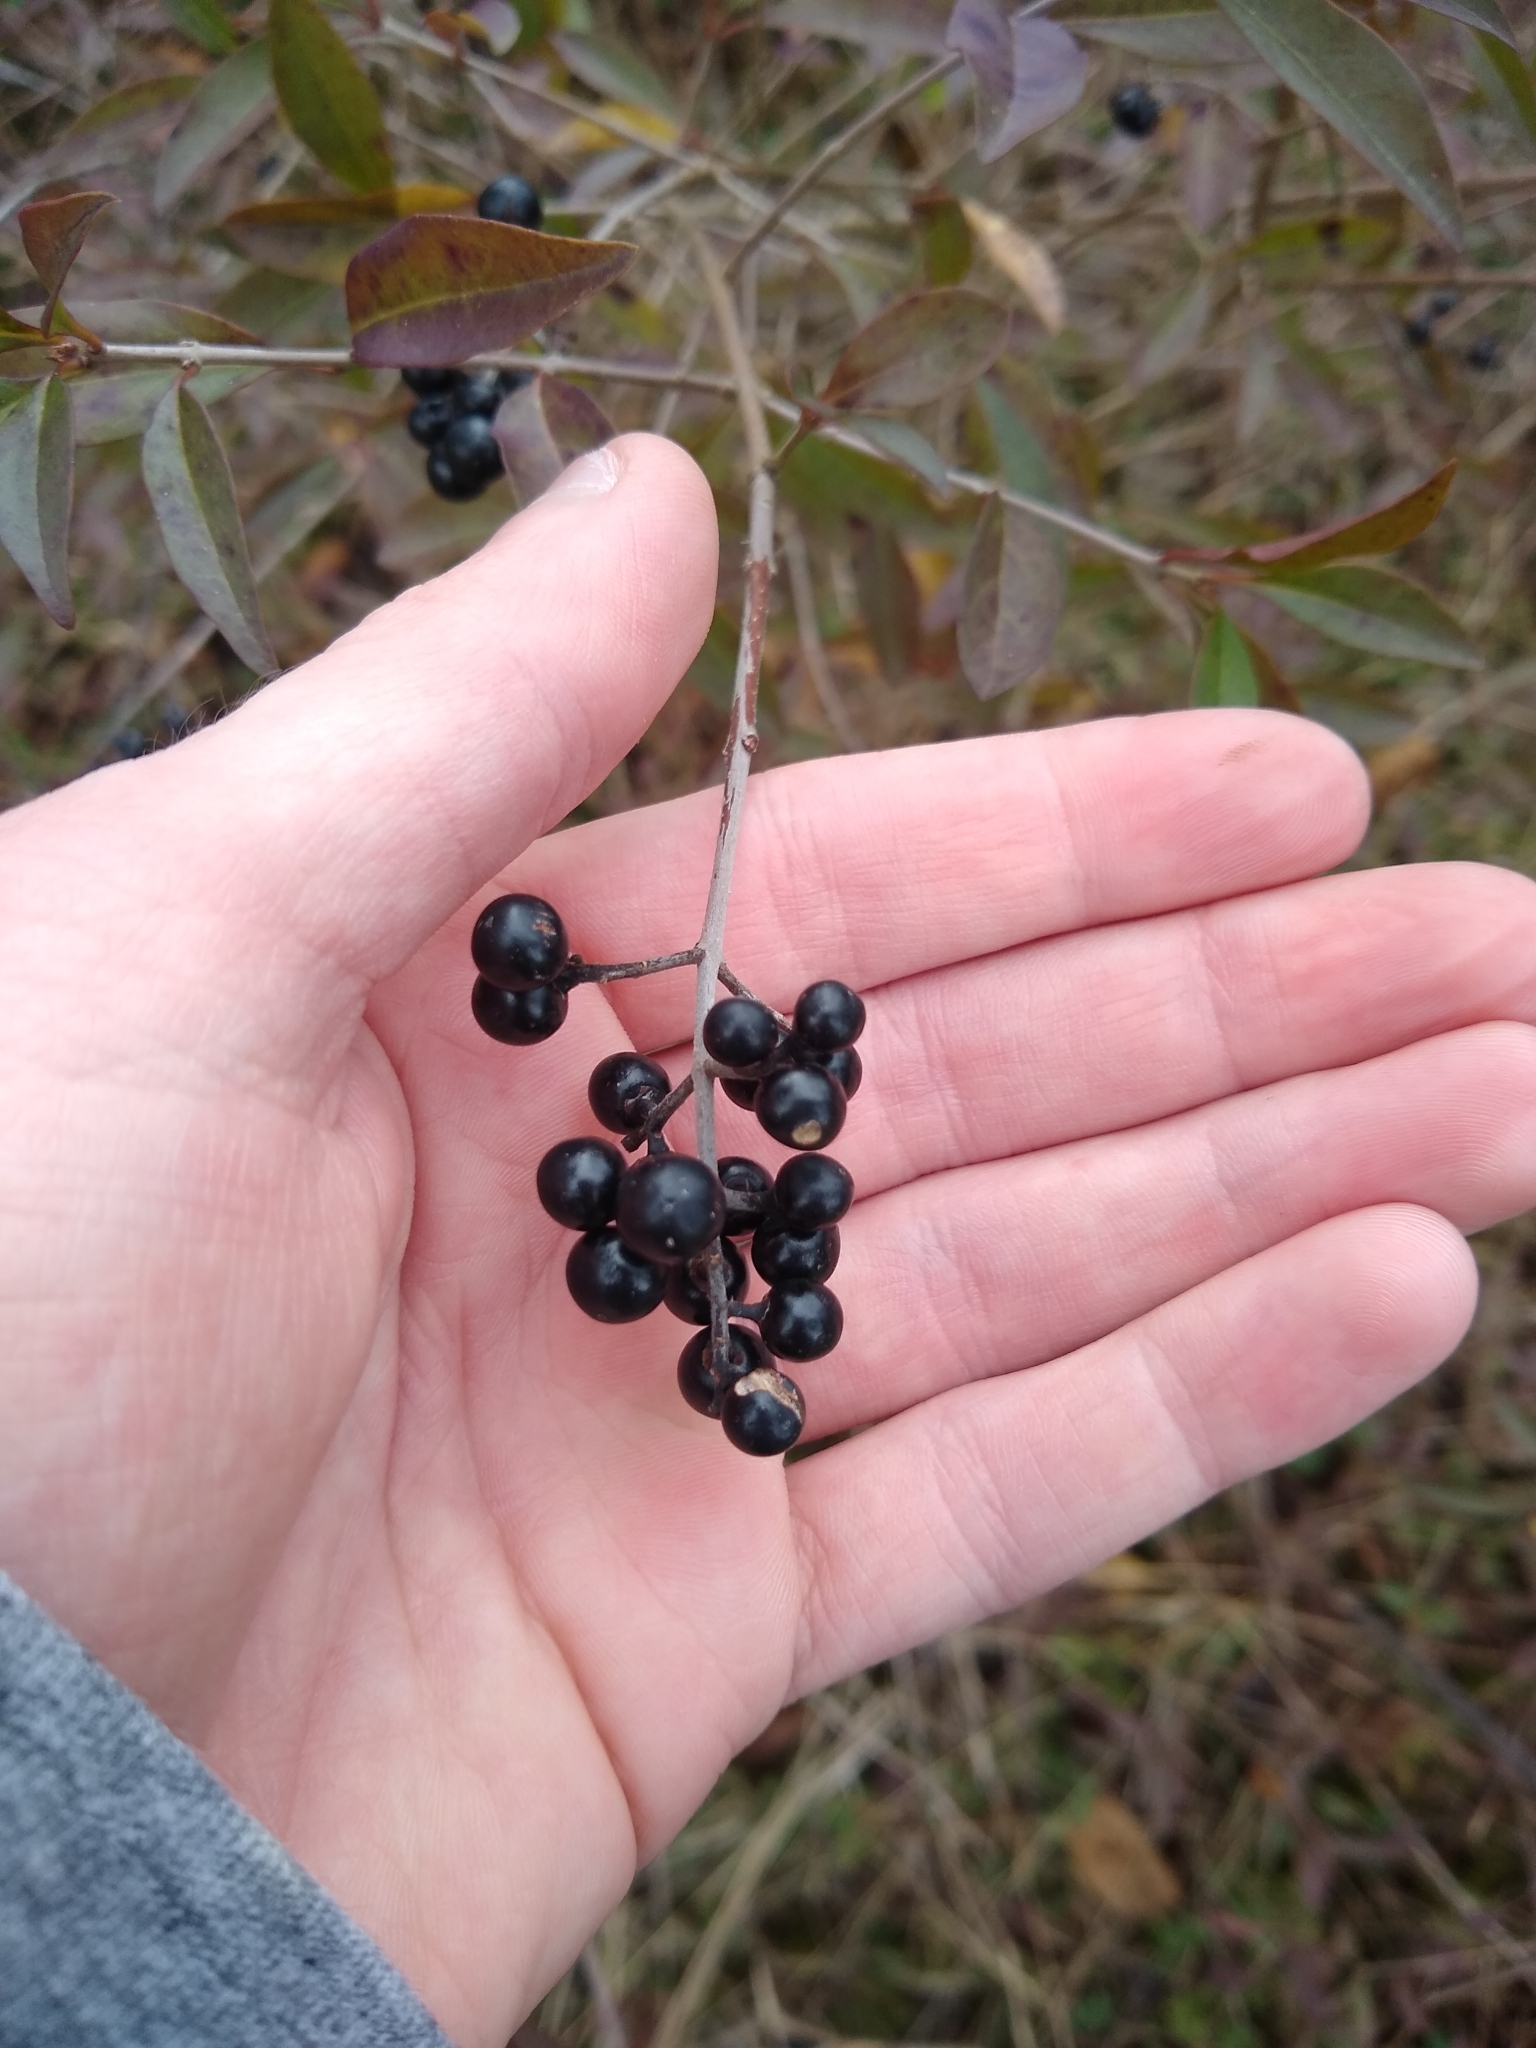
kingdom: Plantae
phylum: Tracheophyta
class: Magnoliopsida
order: Lamiales
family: Oleaceae
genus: Ligustrum
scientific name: Ligustrum vulgare
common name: Wild privet
